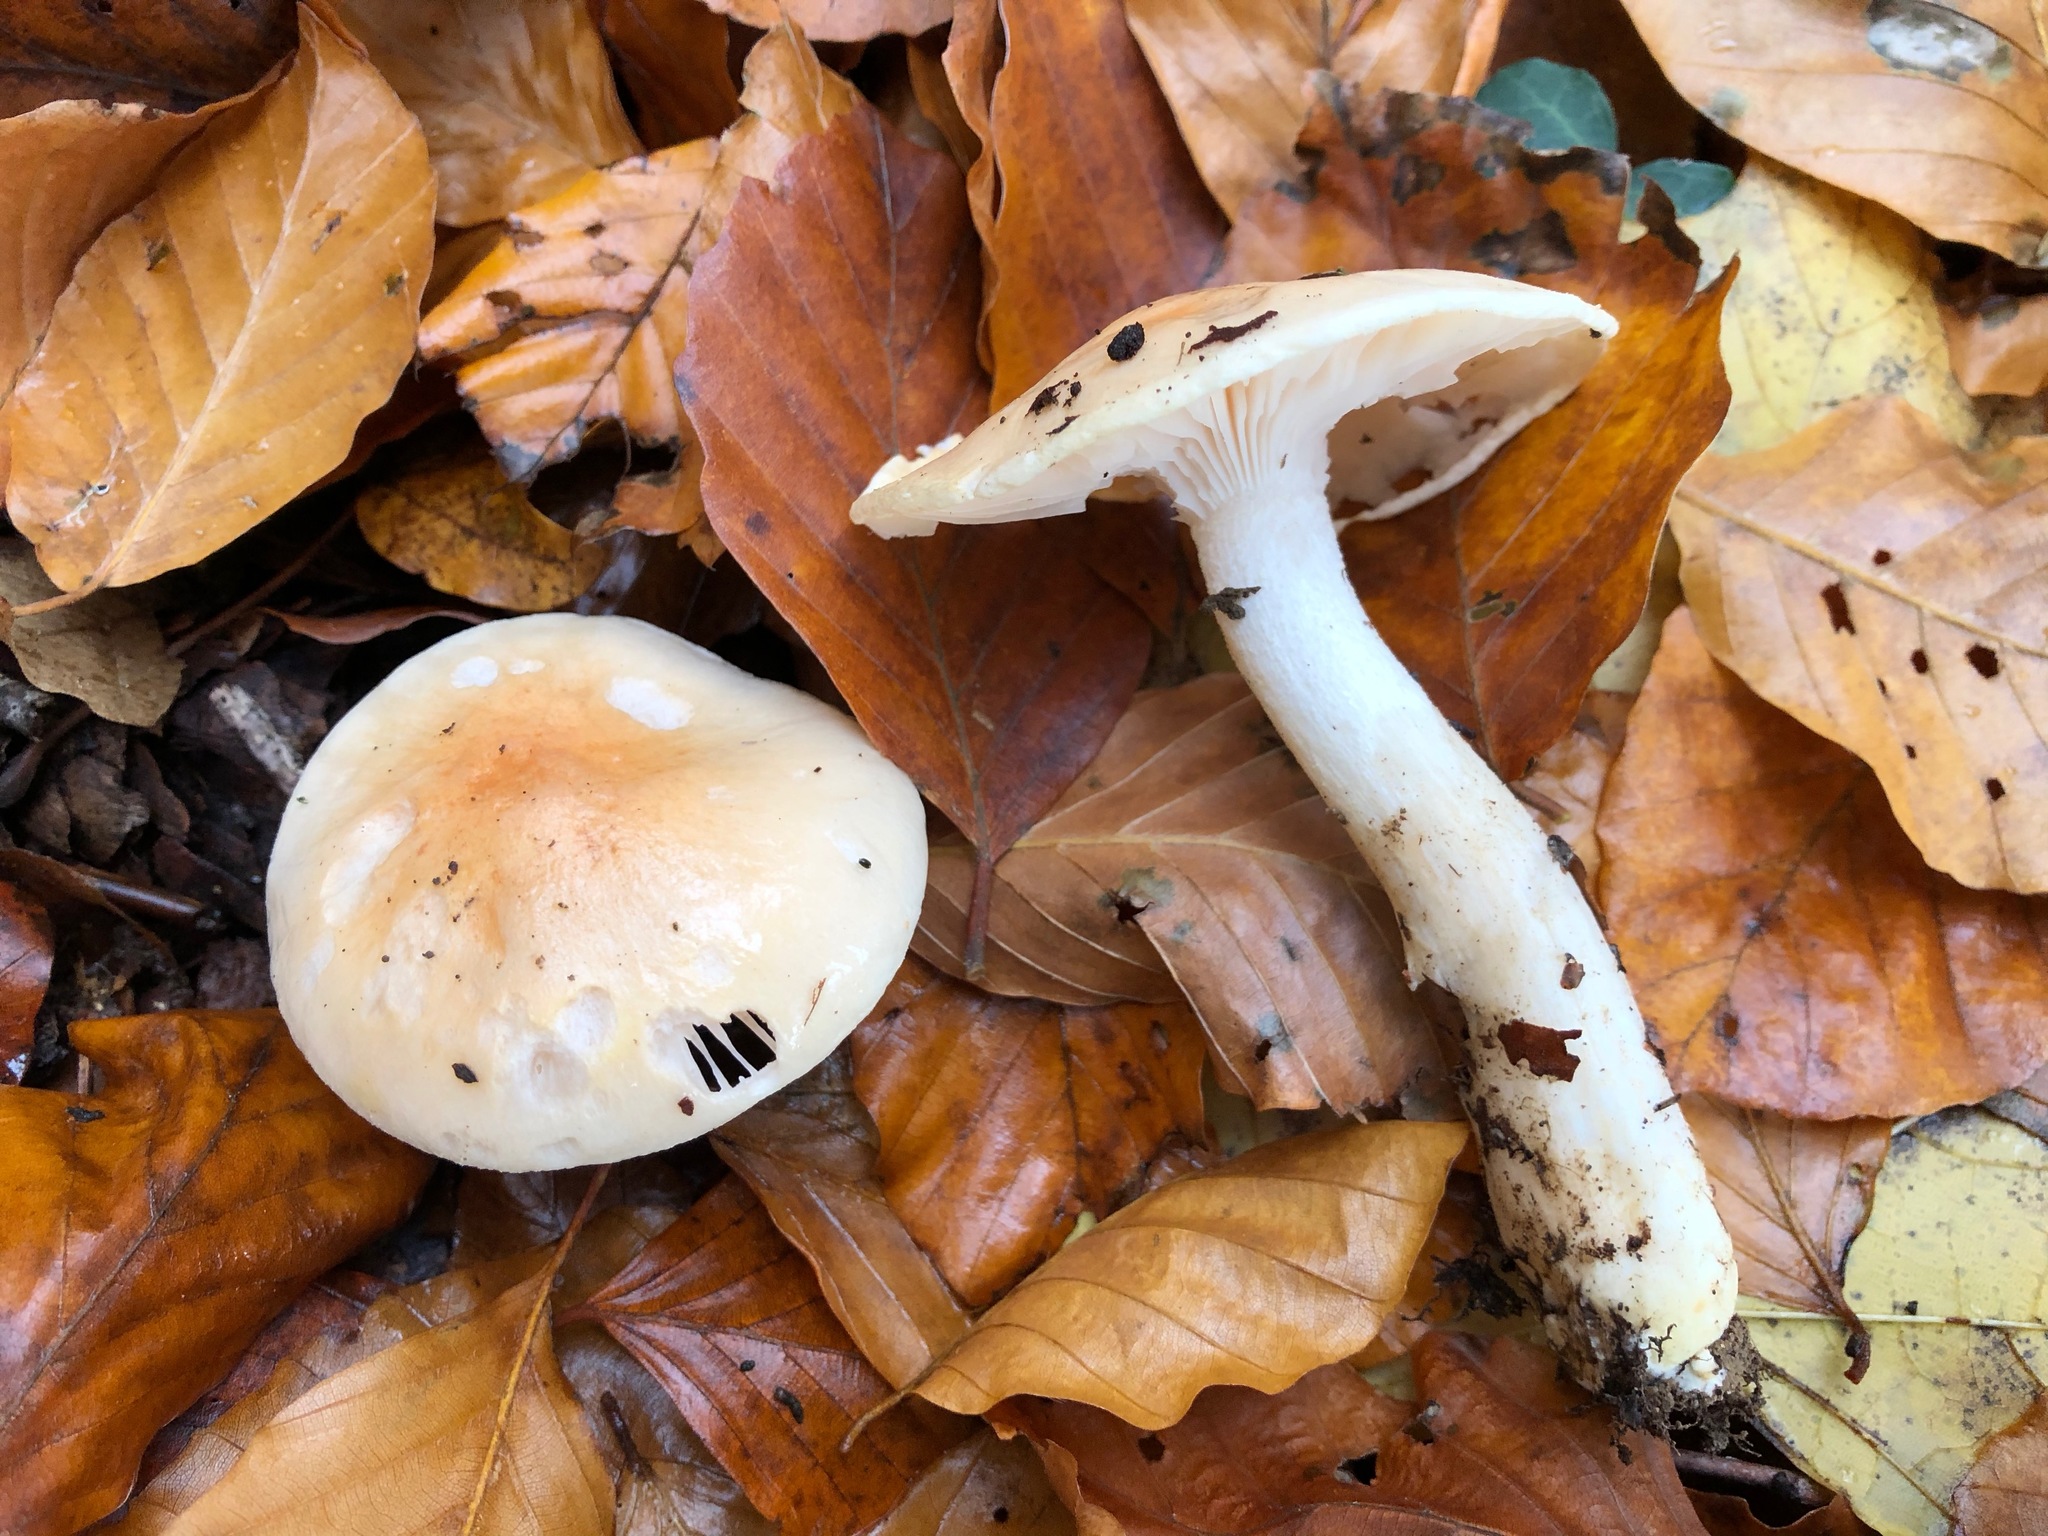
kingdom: Fungi
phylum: Basidiomycota
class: Agaricomycetes
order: Agaricales
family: Hygrophoraceae
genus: Hygrophorus
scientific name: Hygrophorus unicolor
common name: Twotone woodwax
